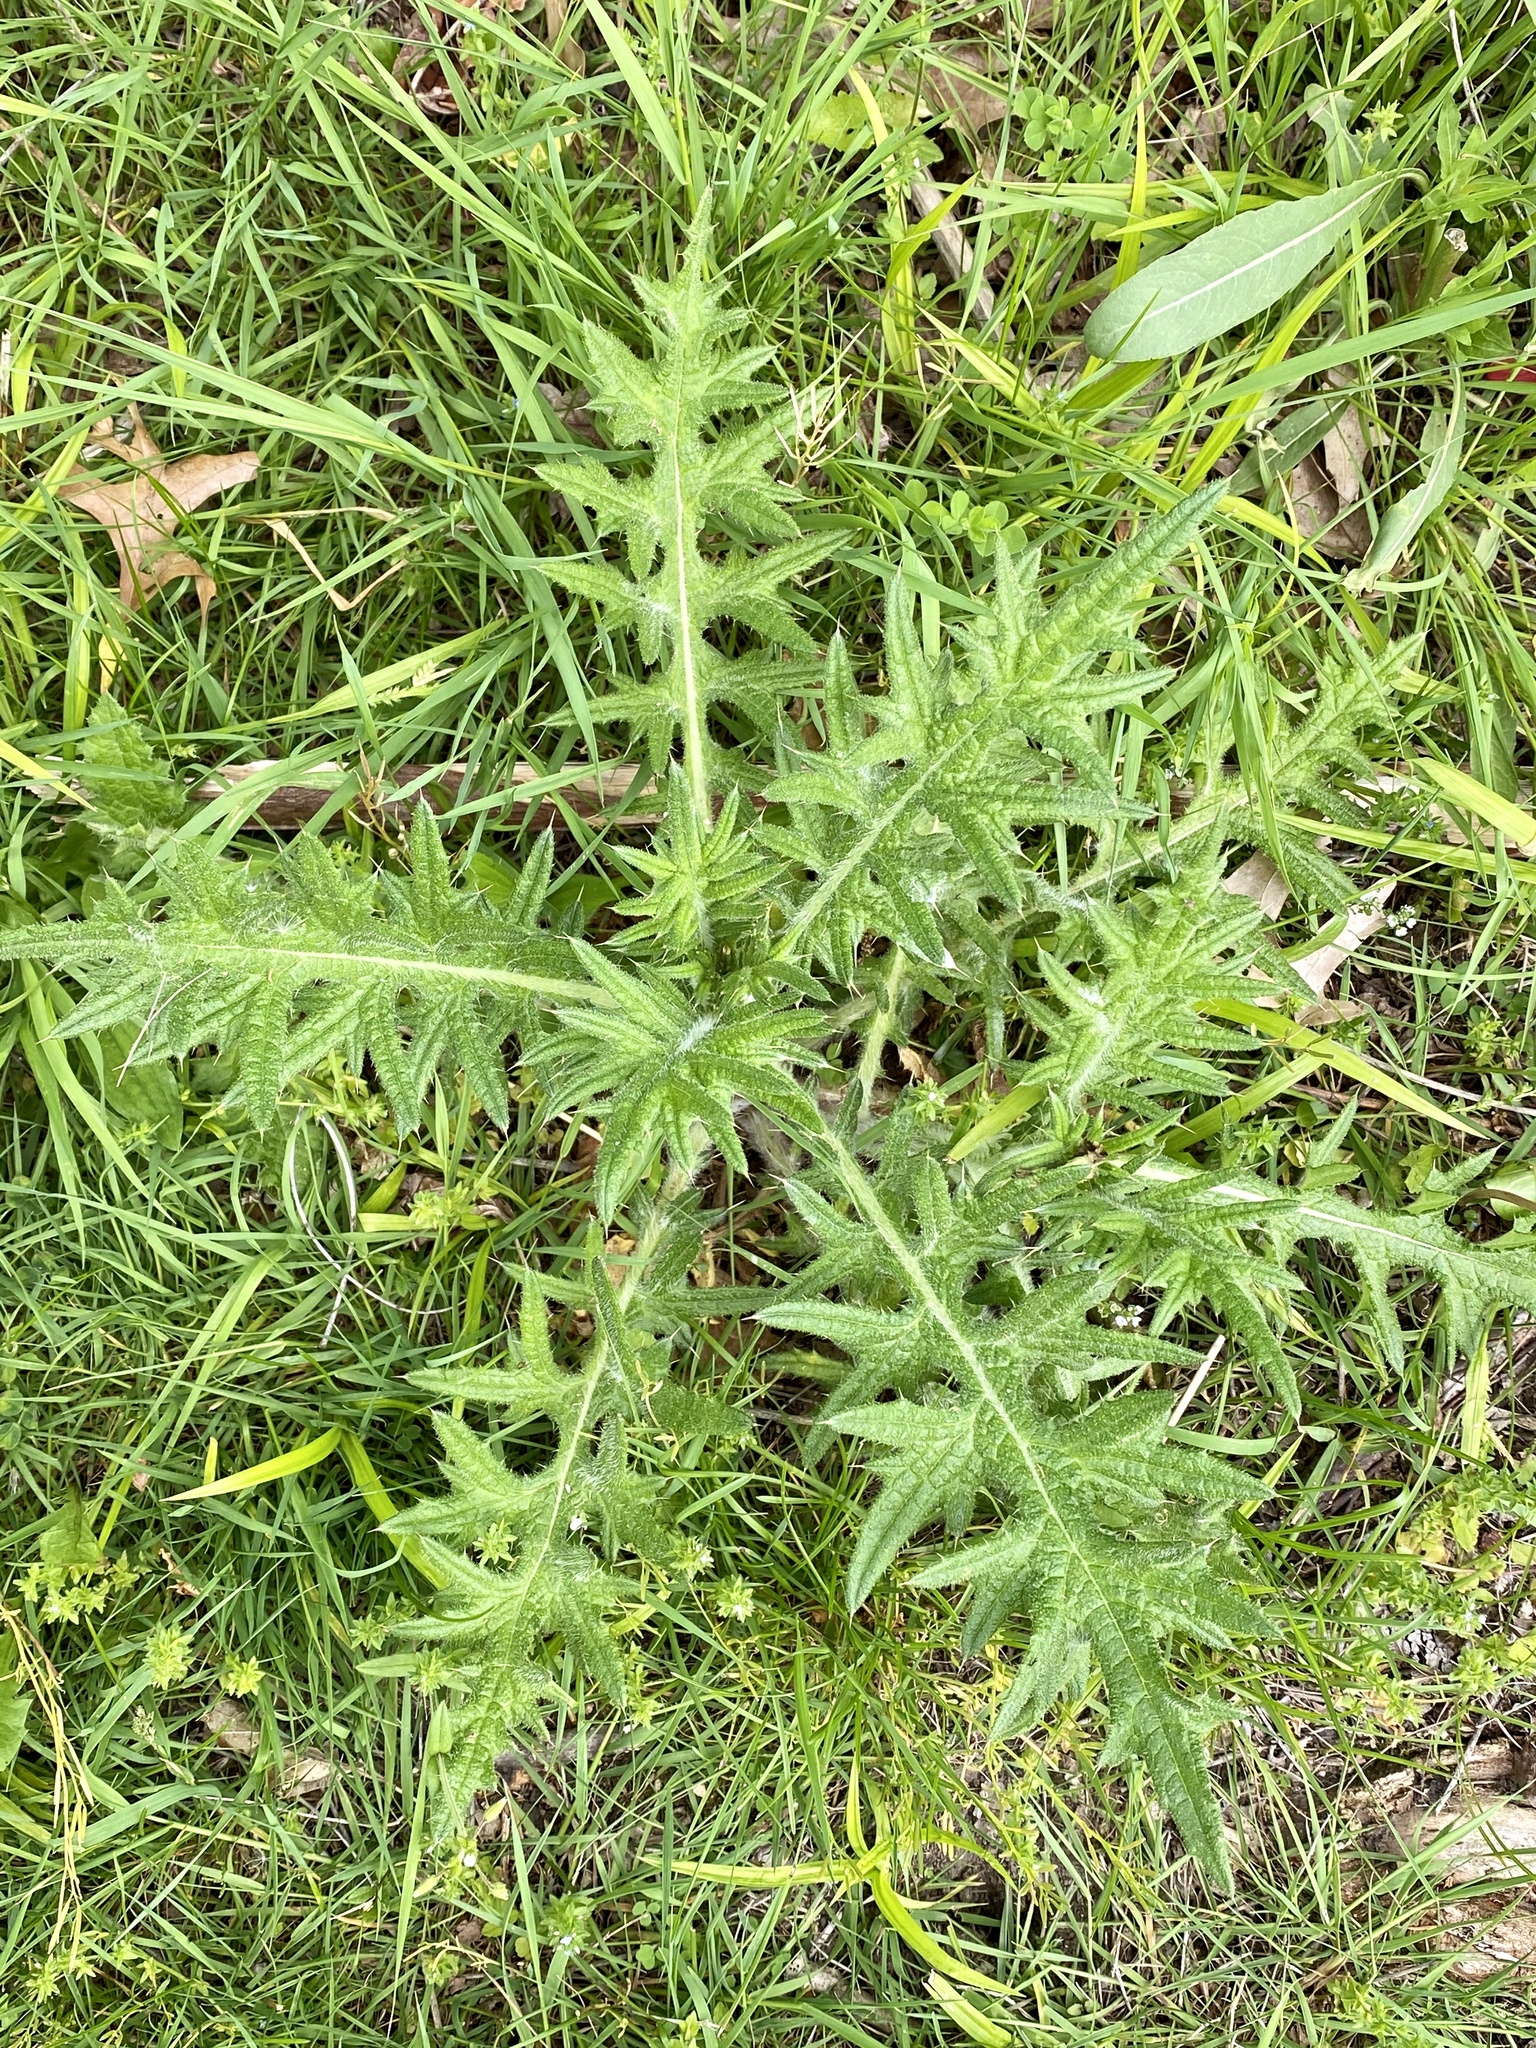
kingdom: Plantae
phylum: Tracheophyta
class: Magnoliopsida
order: Asterales
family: Asteraceae
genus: Cirsium
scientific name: Cirsium vulgare
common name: Bull thistle
